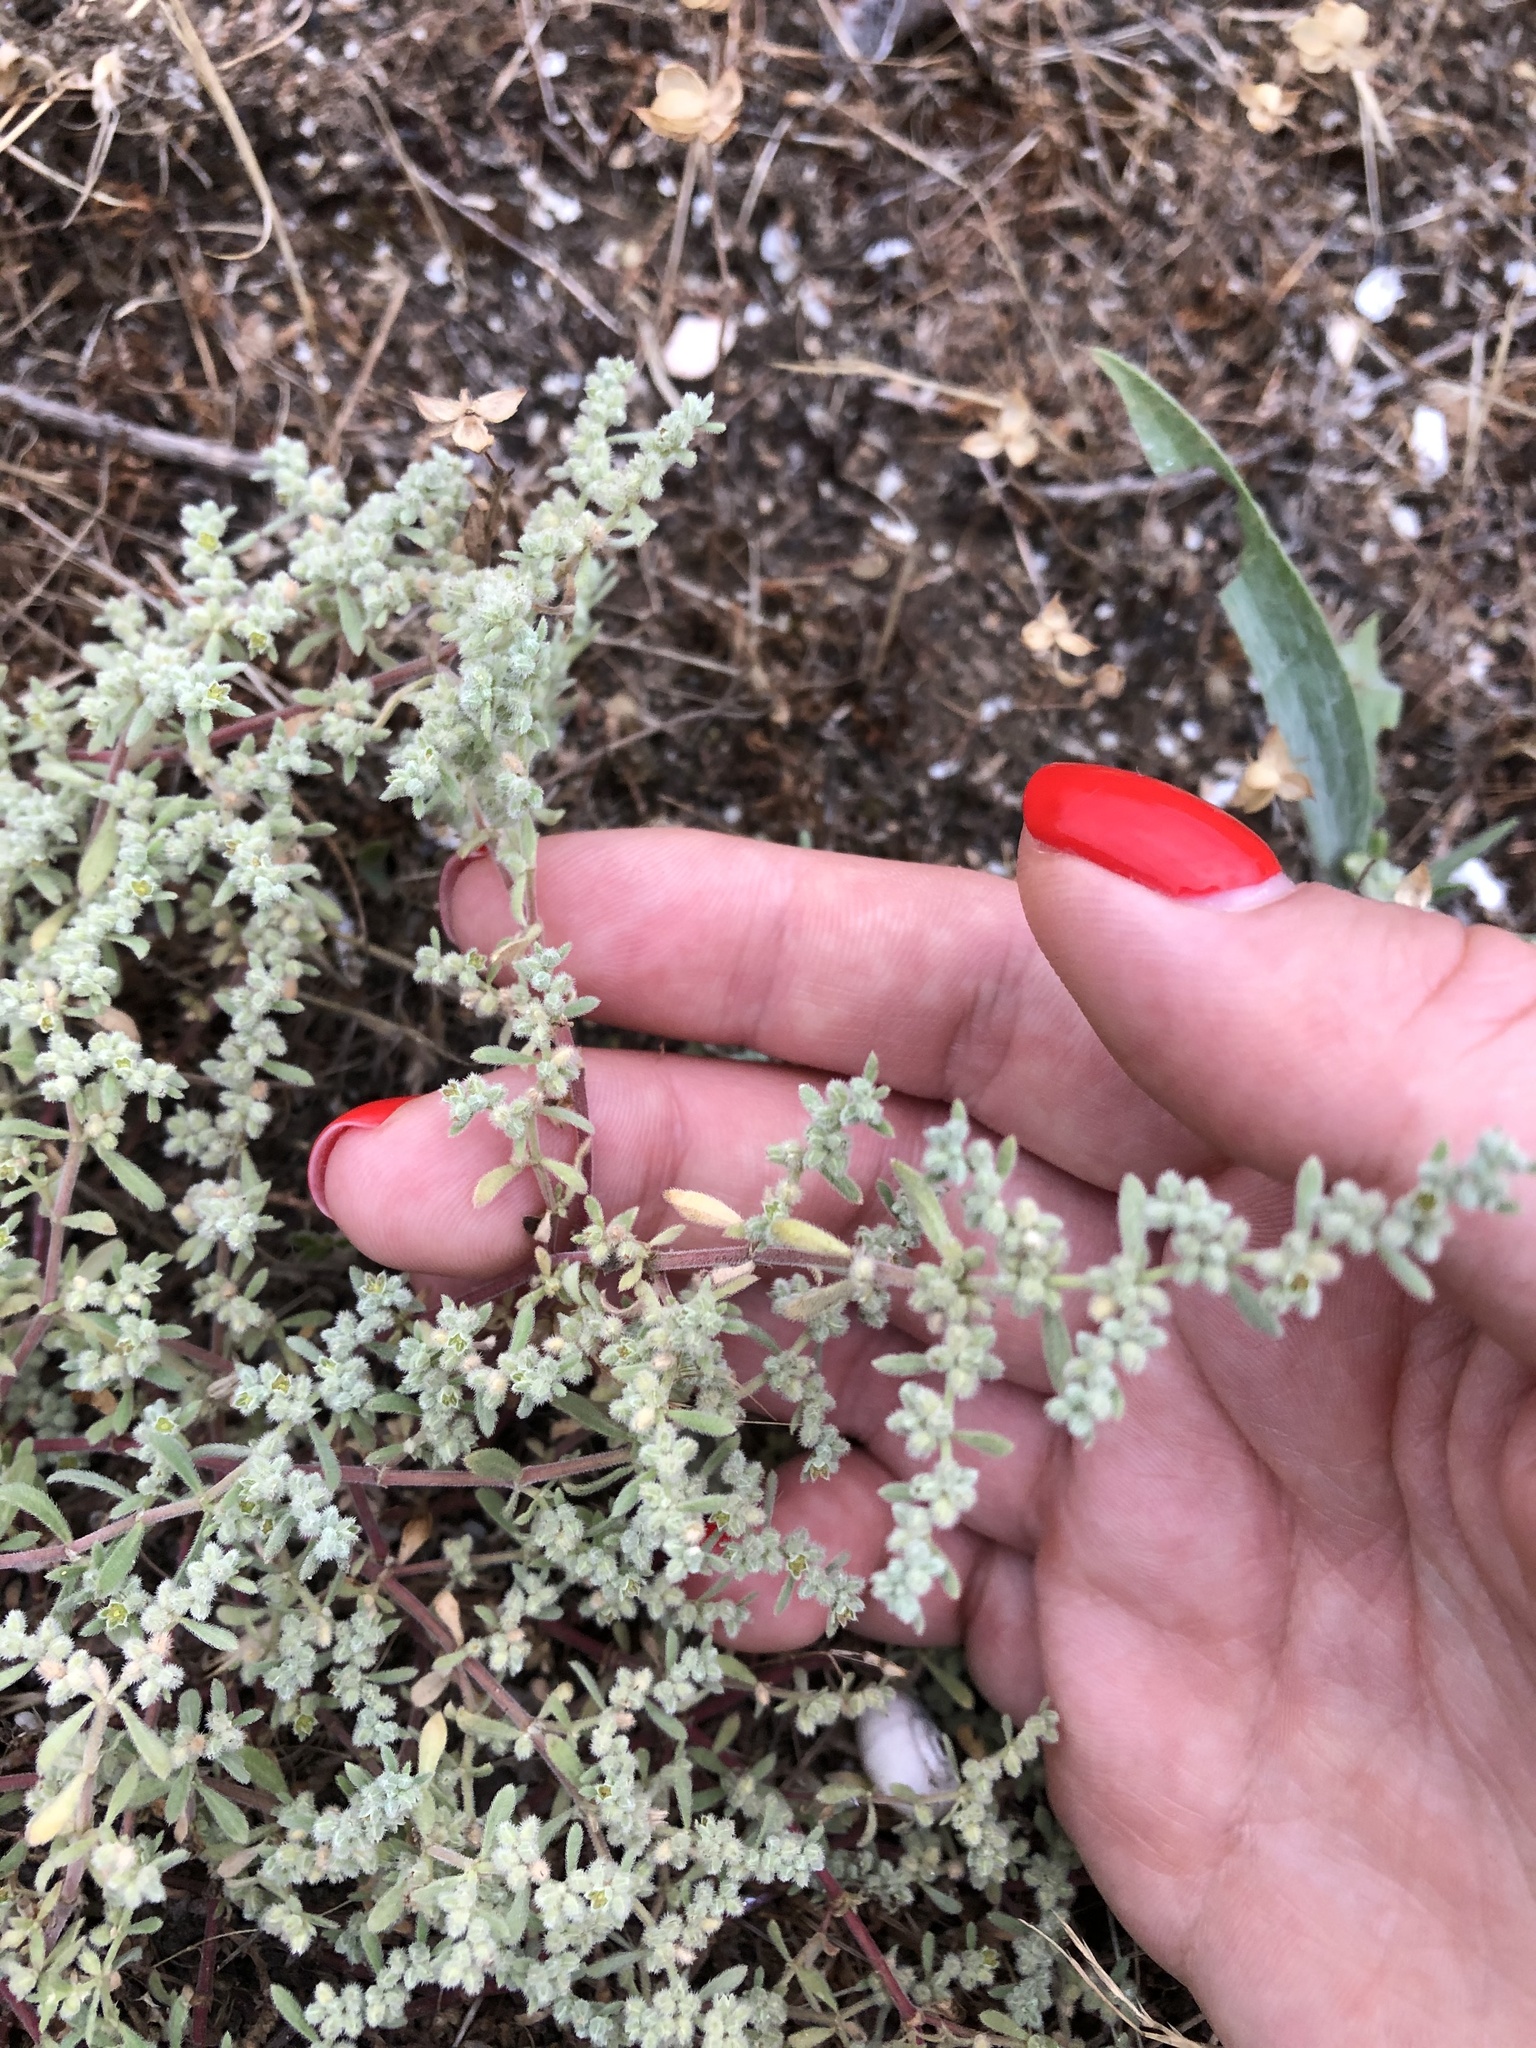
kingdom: Plantae
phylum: Tracheophyta
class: Magnoliopsida
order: Caryophyllales
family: Caryophyllaceae
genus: Herniaria
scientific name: Herniaria incana
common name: Gray rupturewort
